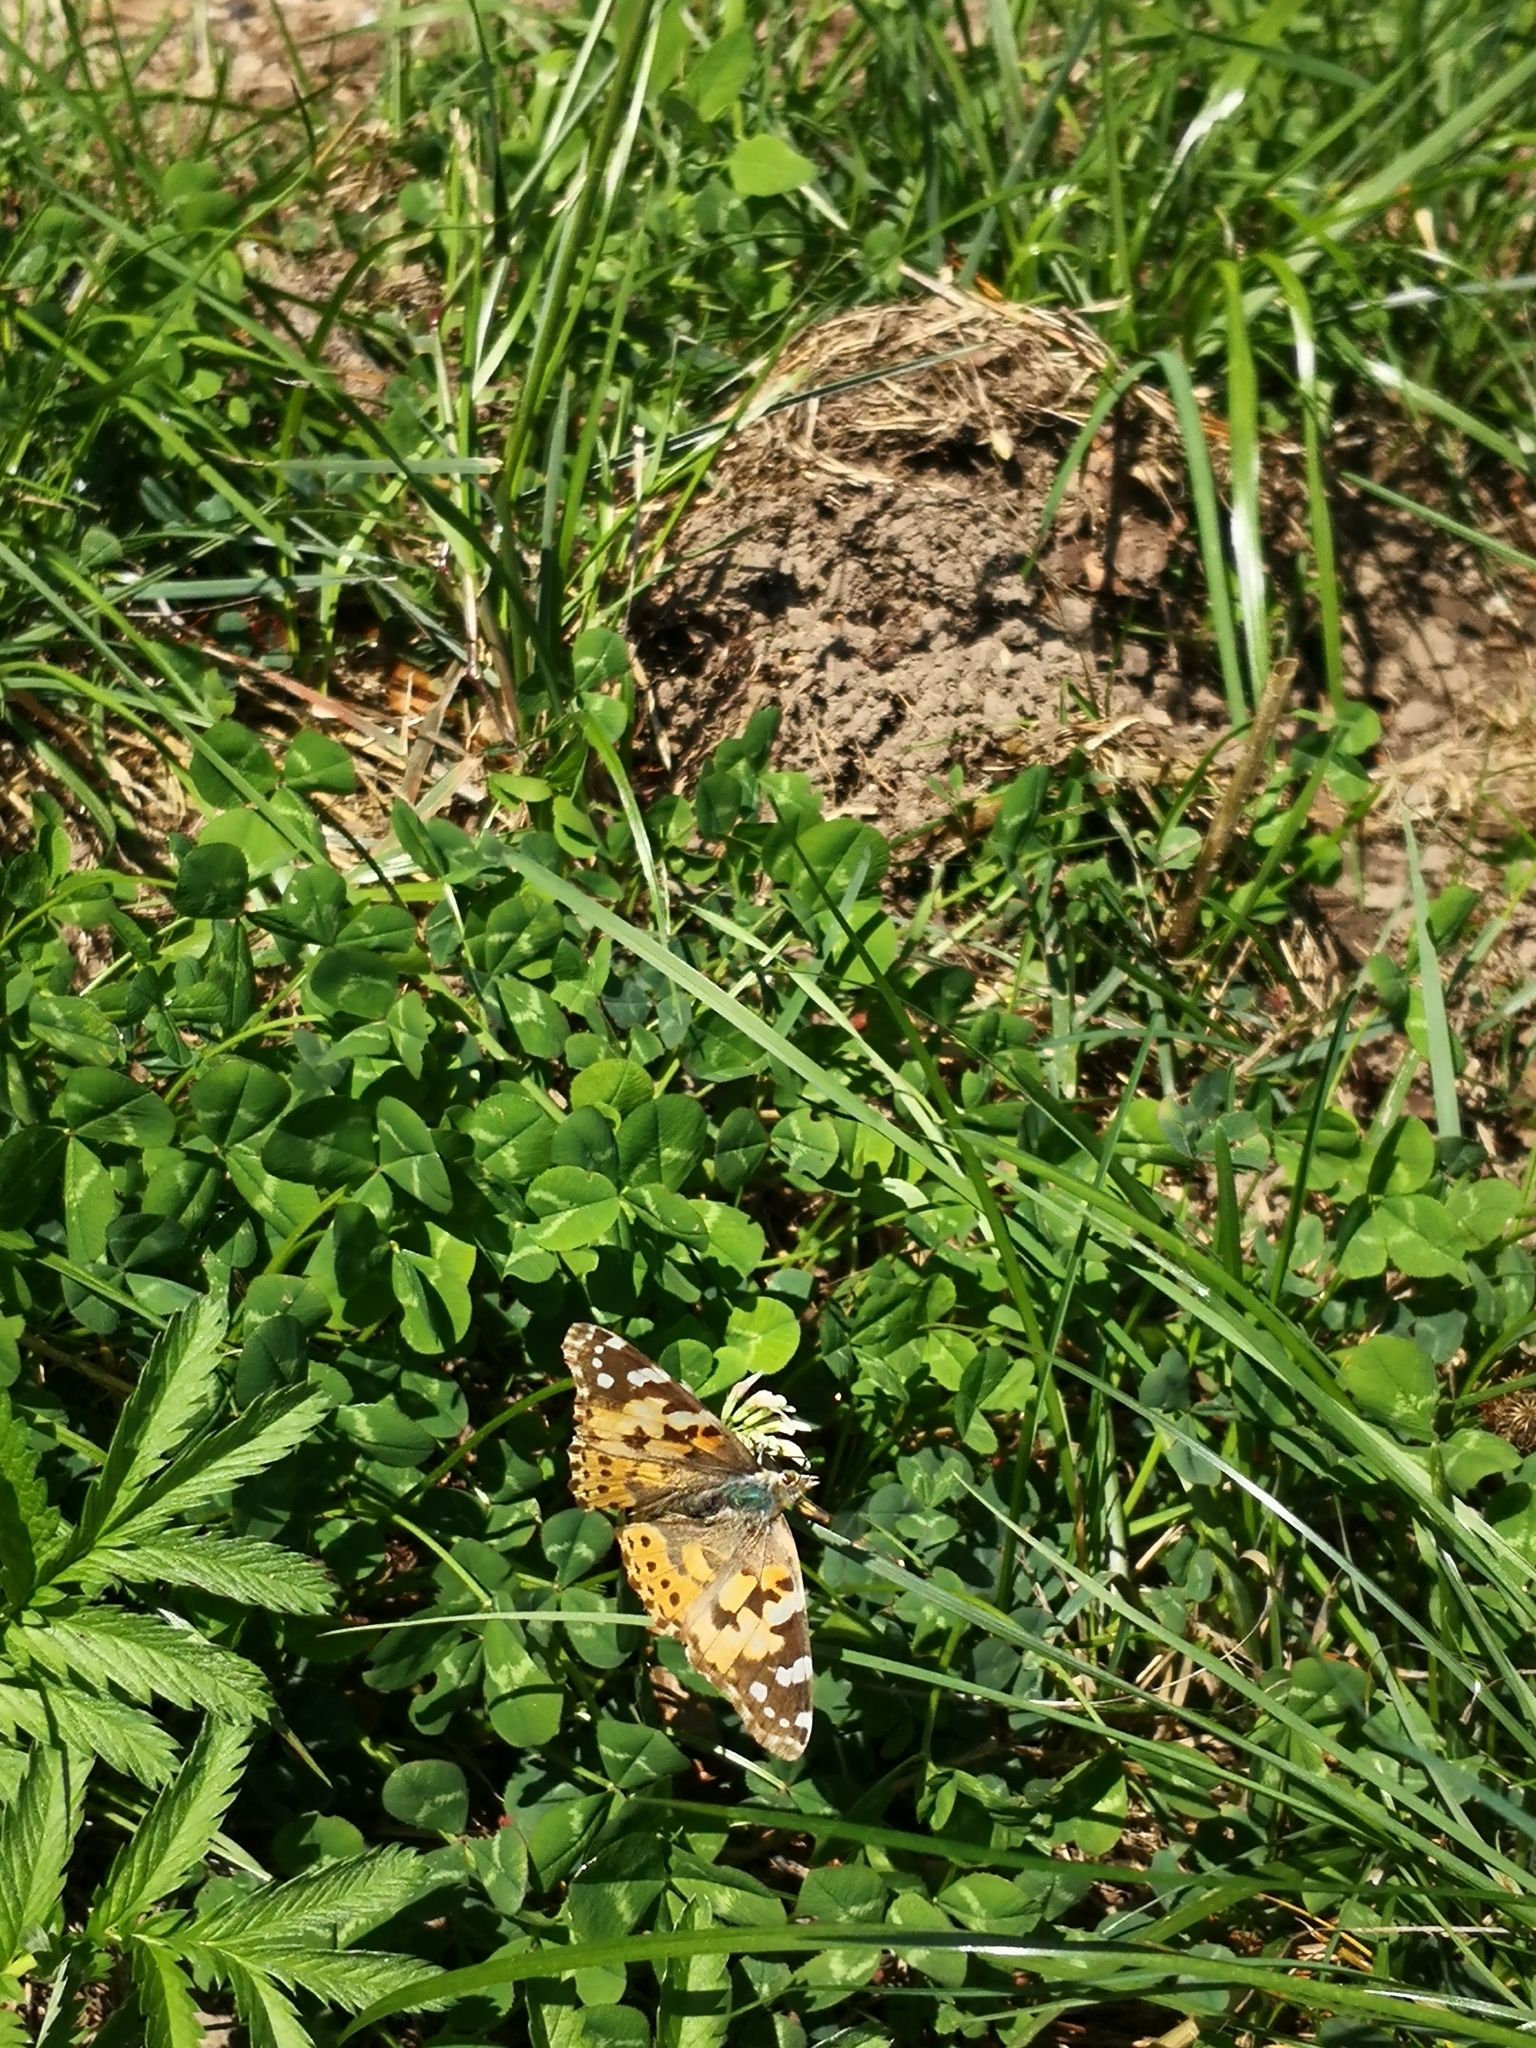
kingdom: Animalia
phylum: Arthropoda
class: Insecta
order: Lepidoptera
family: Nymphalidae
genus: Vanessa
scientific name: Vanessa cardui
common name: Painted lady
